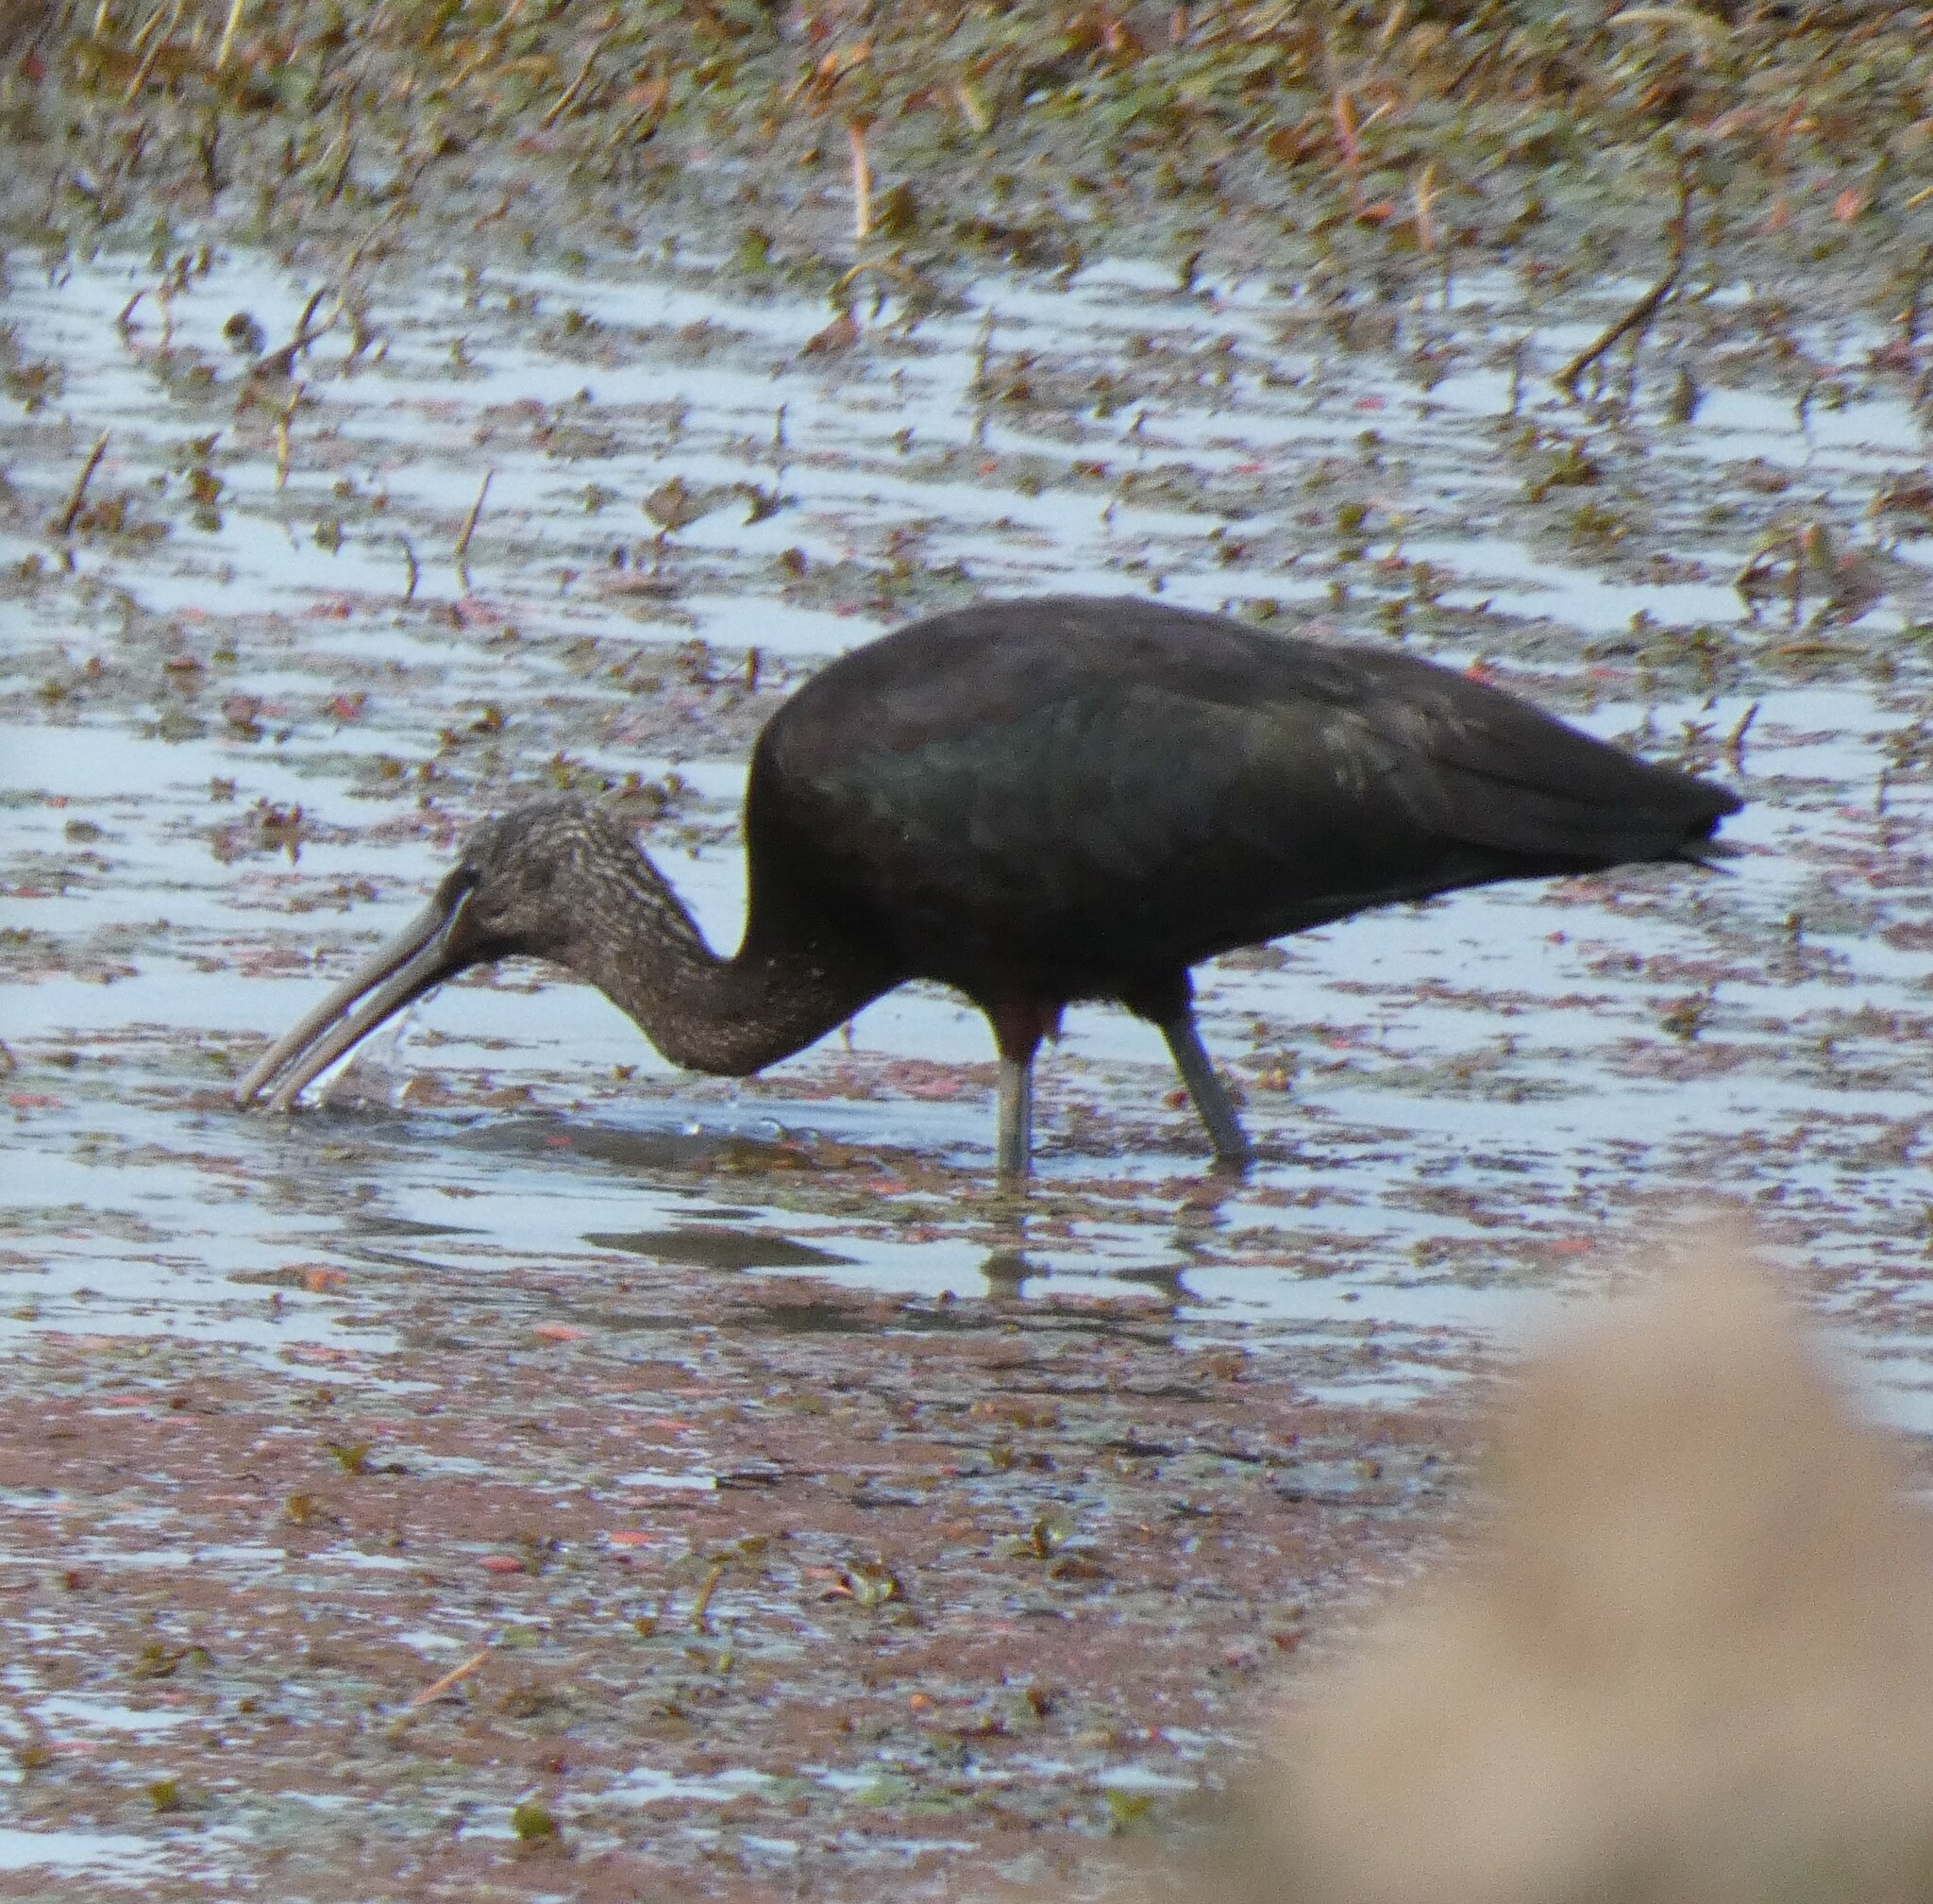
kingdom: Animalia
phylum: Chordata
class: Aves
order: Pelecaniformes
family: Threskiornithidae
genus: Plegadis
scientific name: Plegadis falcinellus
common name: Glossy ibis
